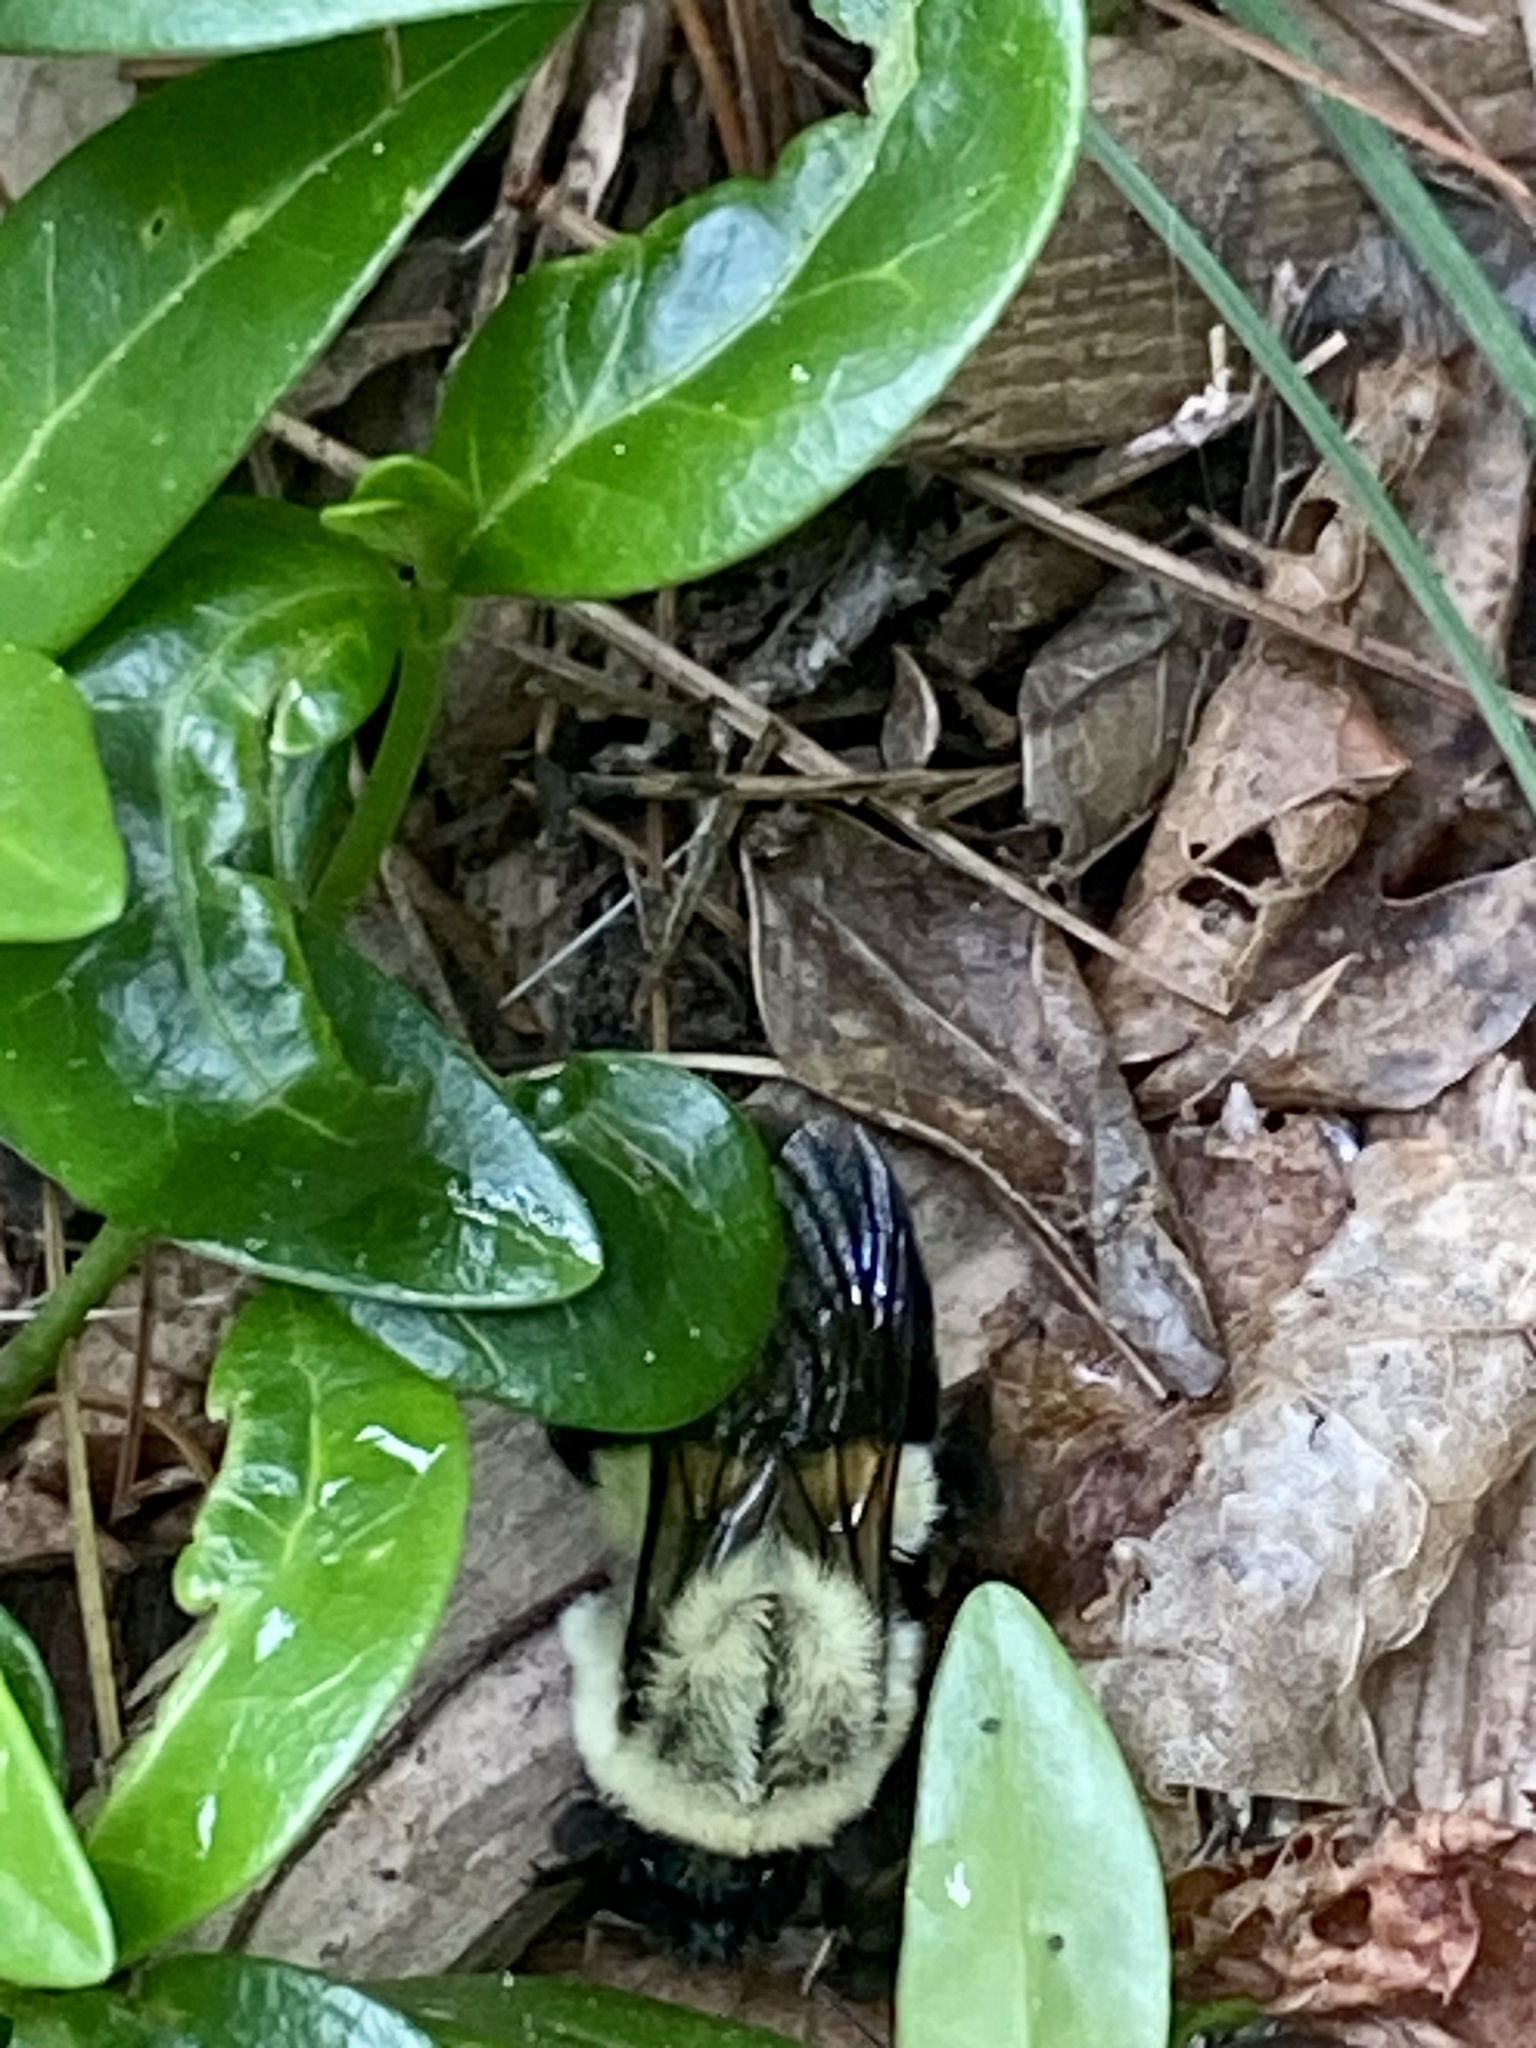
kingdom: Animalia
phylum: Arthropoda
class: Insecta
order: Hymenoptera
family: Apidae
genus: Bombus
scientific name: Bombus impatiens
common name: Common eastern bumble bee
